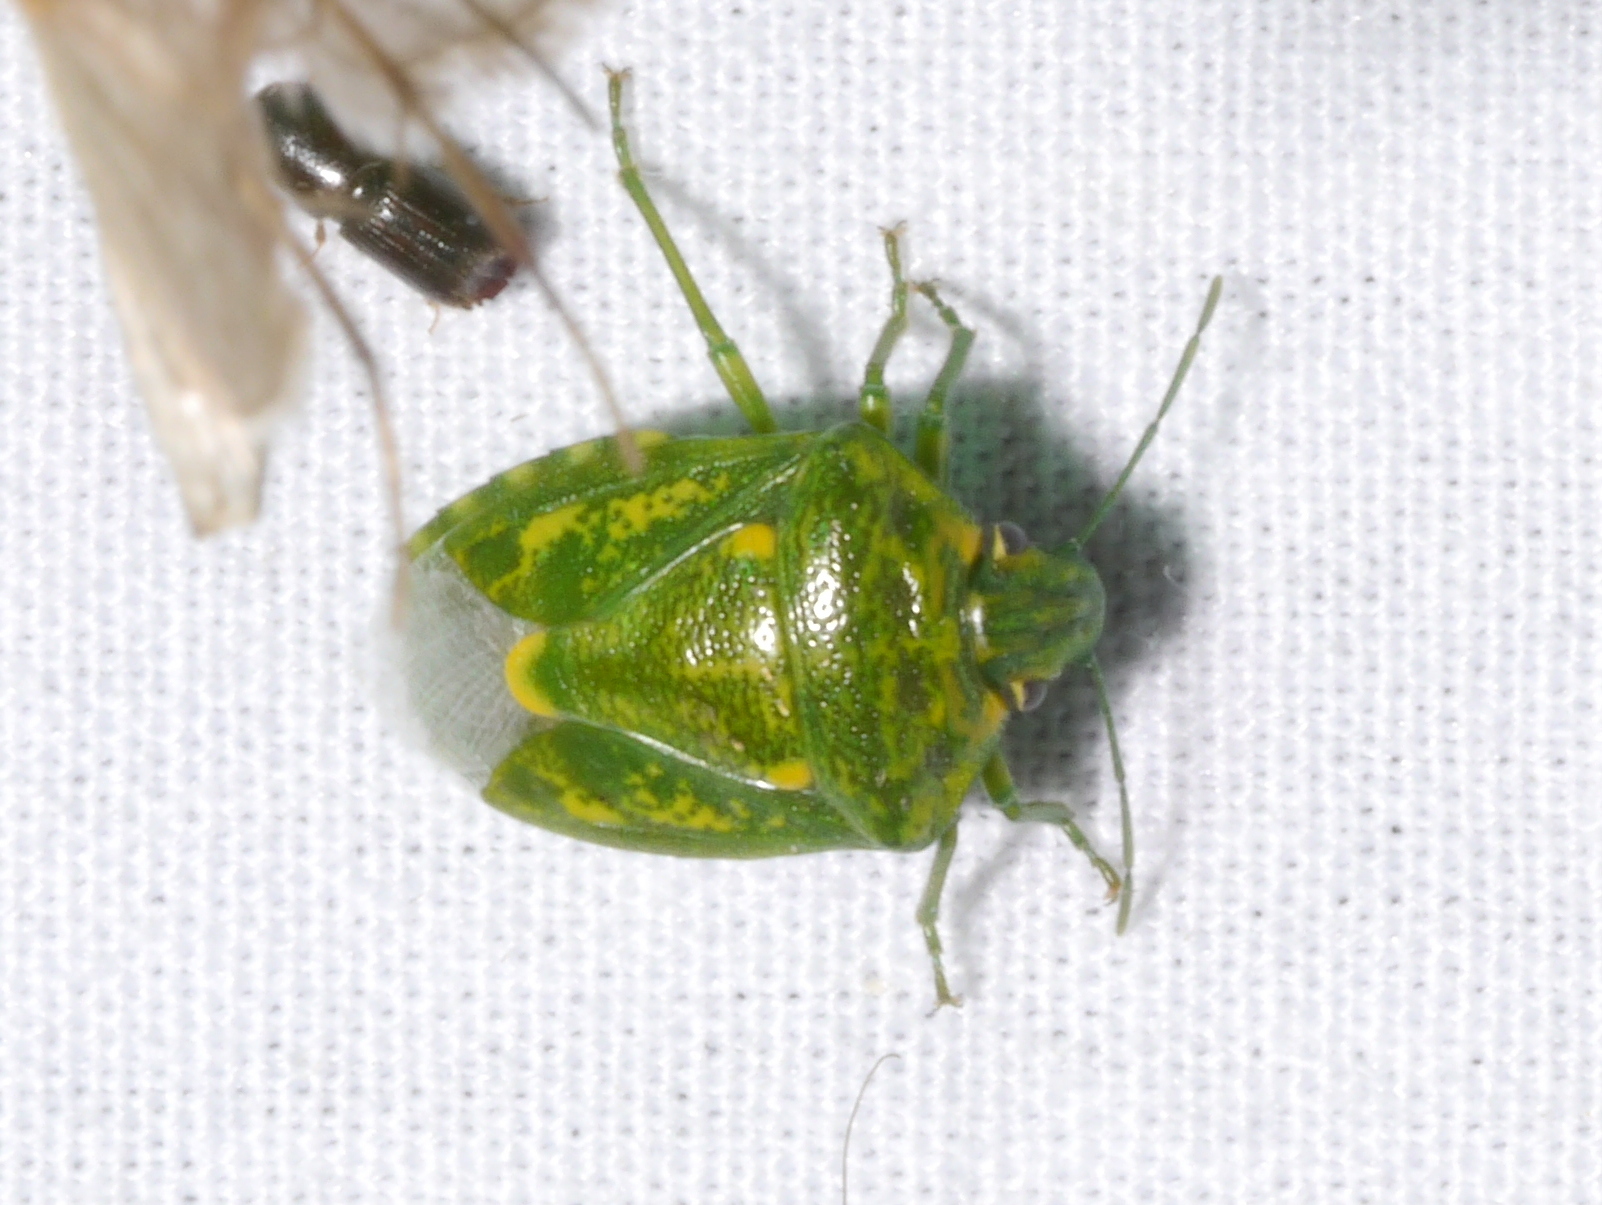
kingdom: Animalia
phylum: Arthropoda
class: Insecta
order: Hemiptera
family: Pentatomidae
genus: Banasa
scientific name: Banasa euchlora
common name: Cedar berry bug
